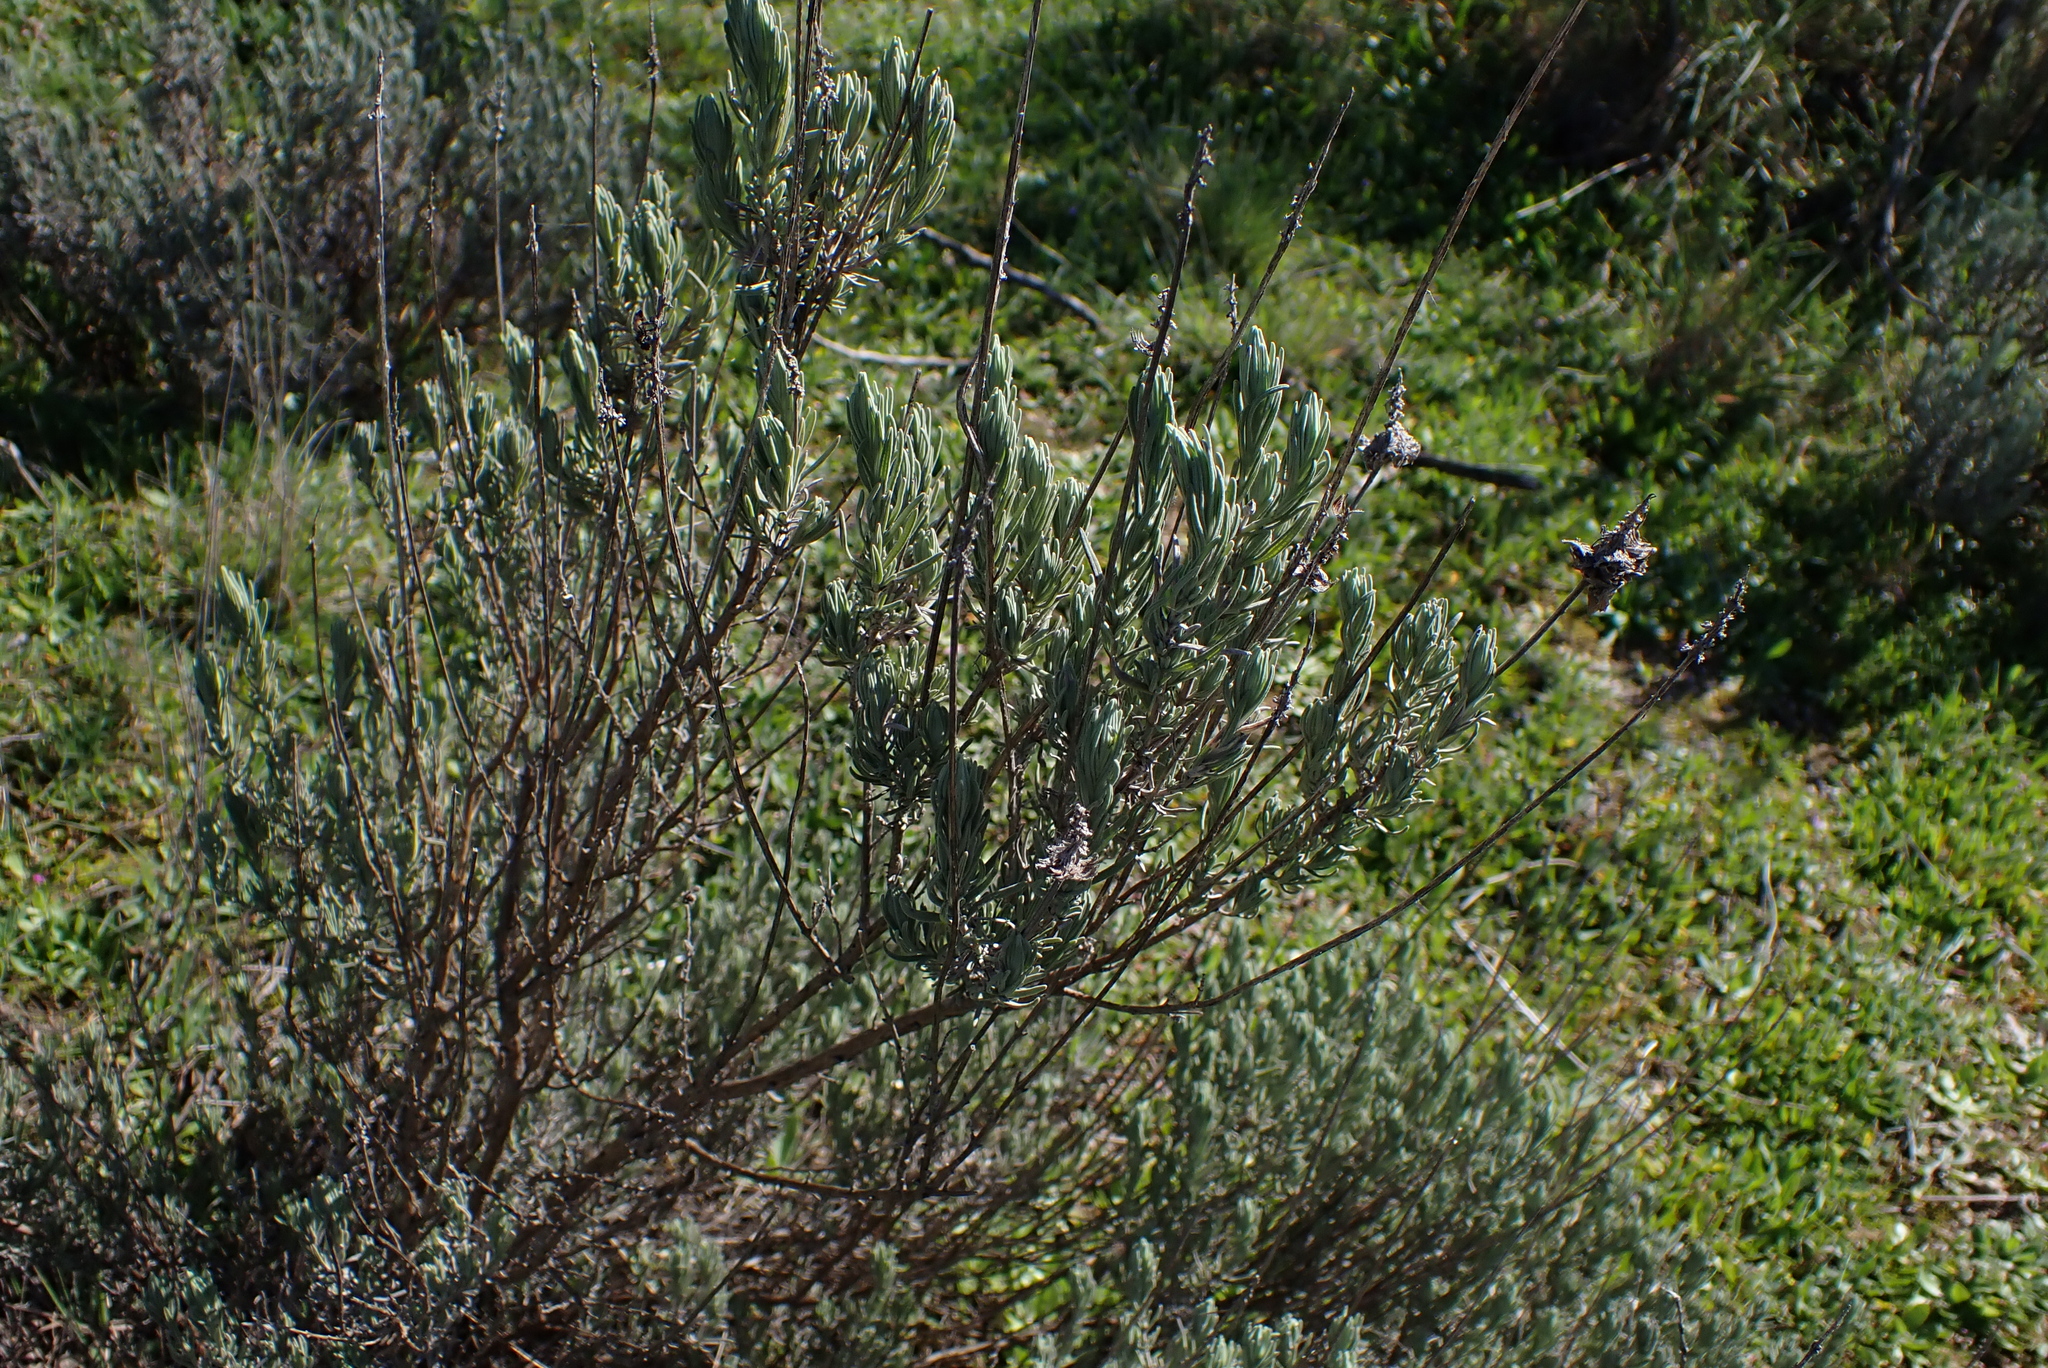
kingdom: Plantae
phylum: Tracheophyta
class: Magnoliopsida
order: Lamiales
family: Lamiaceae
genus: Lavandula
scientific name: Lavandula pedunculata
